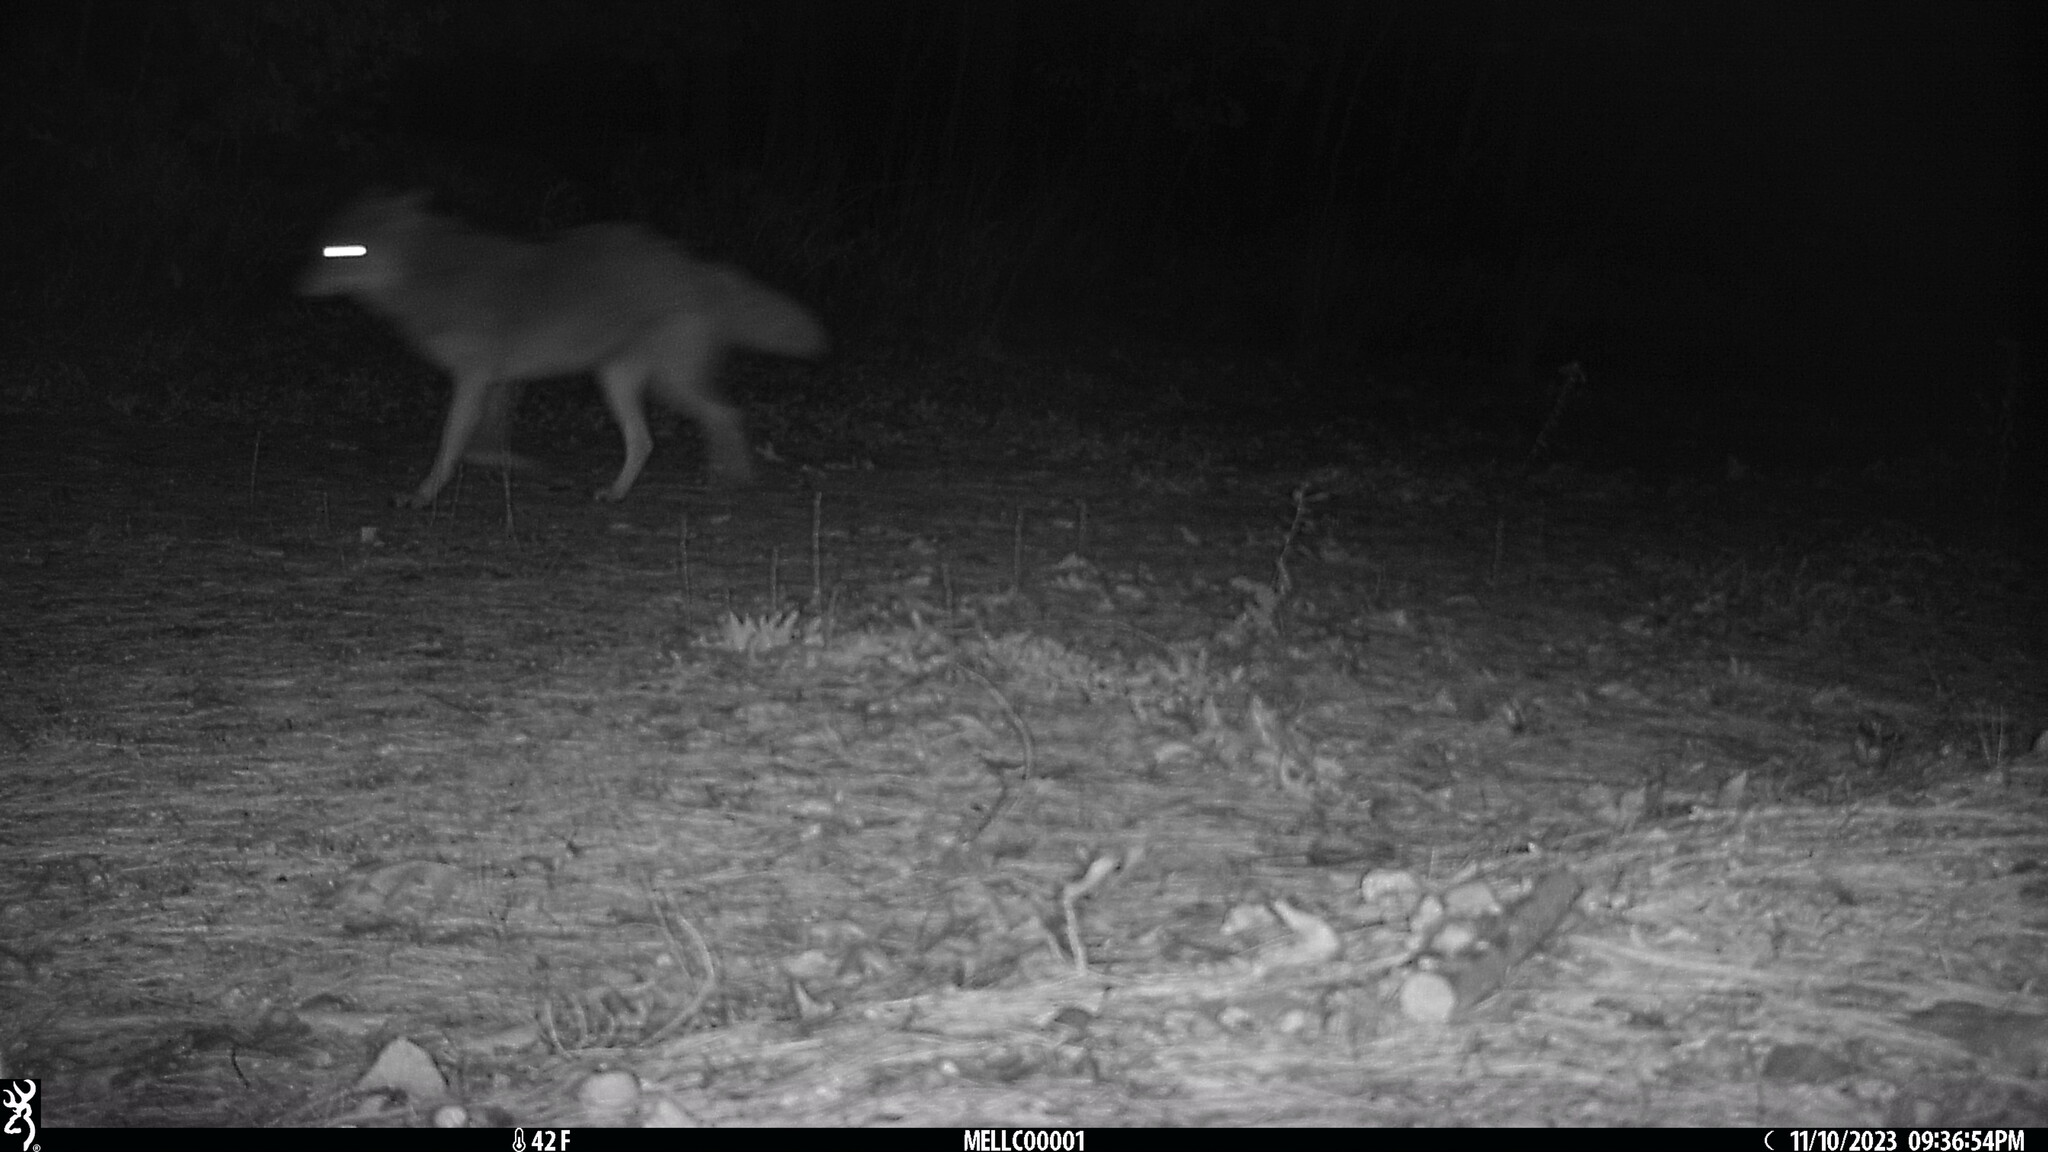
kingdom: Animalia
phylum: Chordata
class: Mammalia
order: Carnivora
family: Canidae
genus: Canis
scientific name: Canis latrans
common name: Coyote
